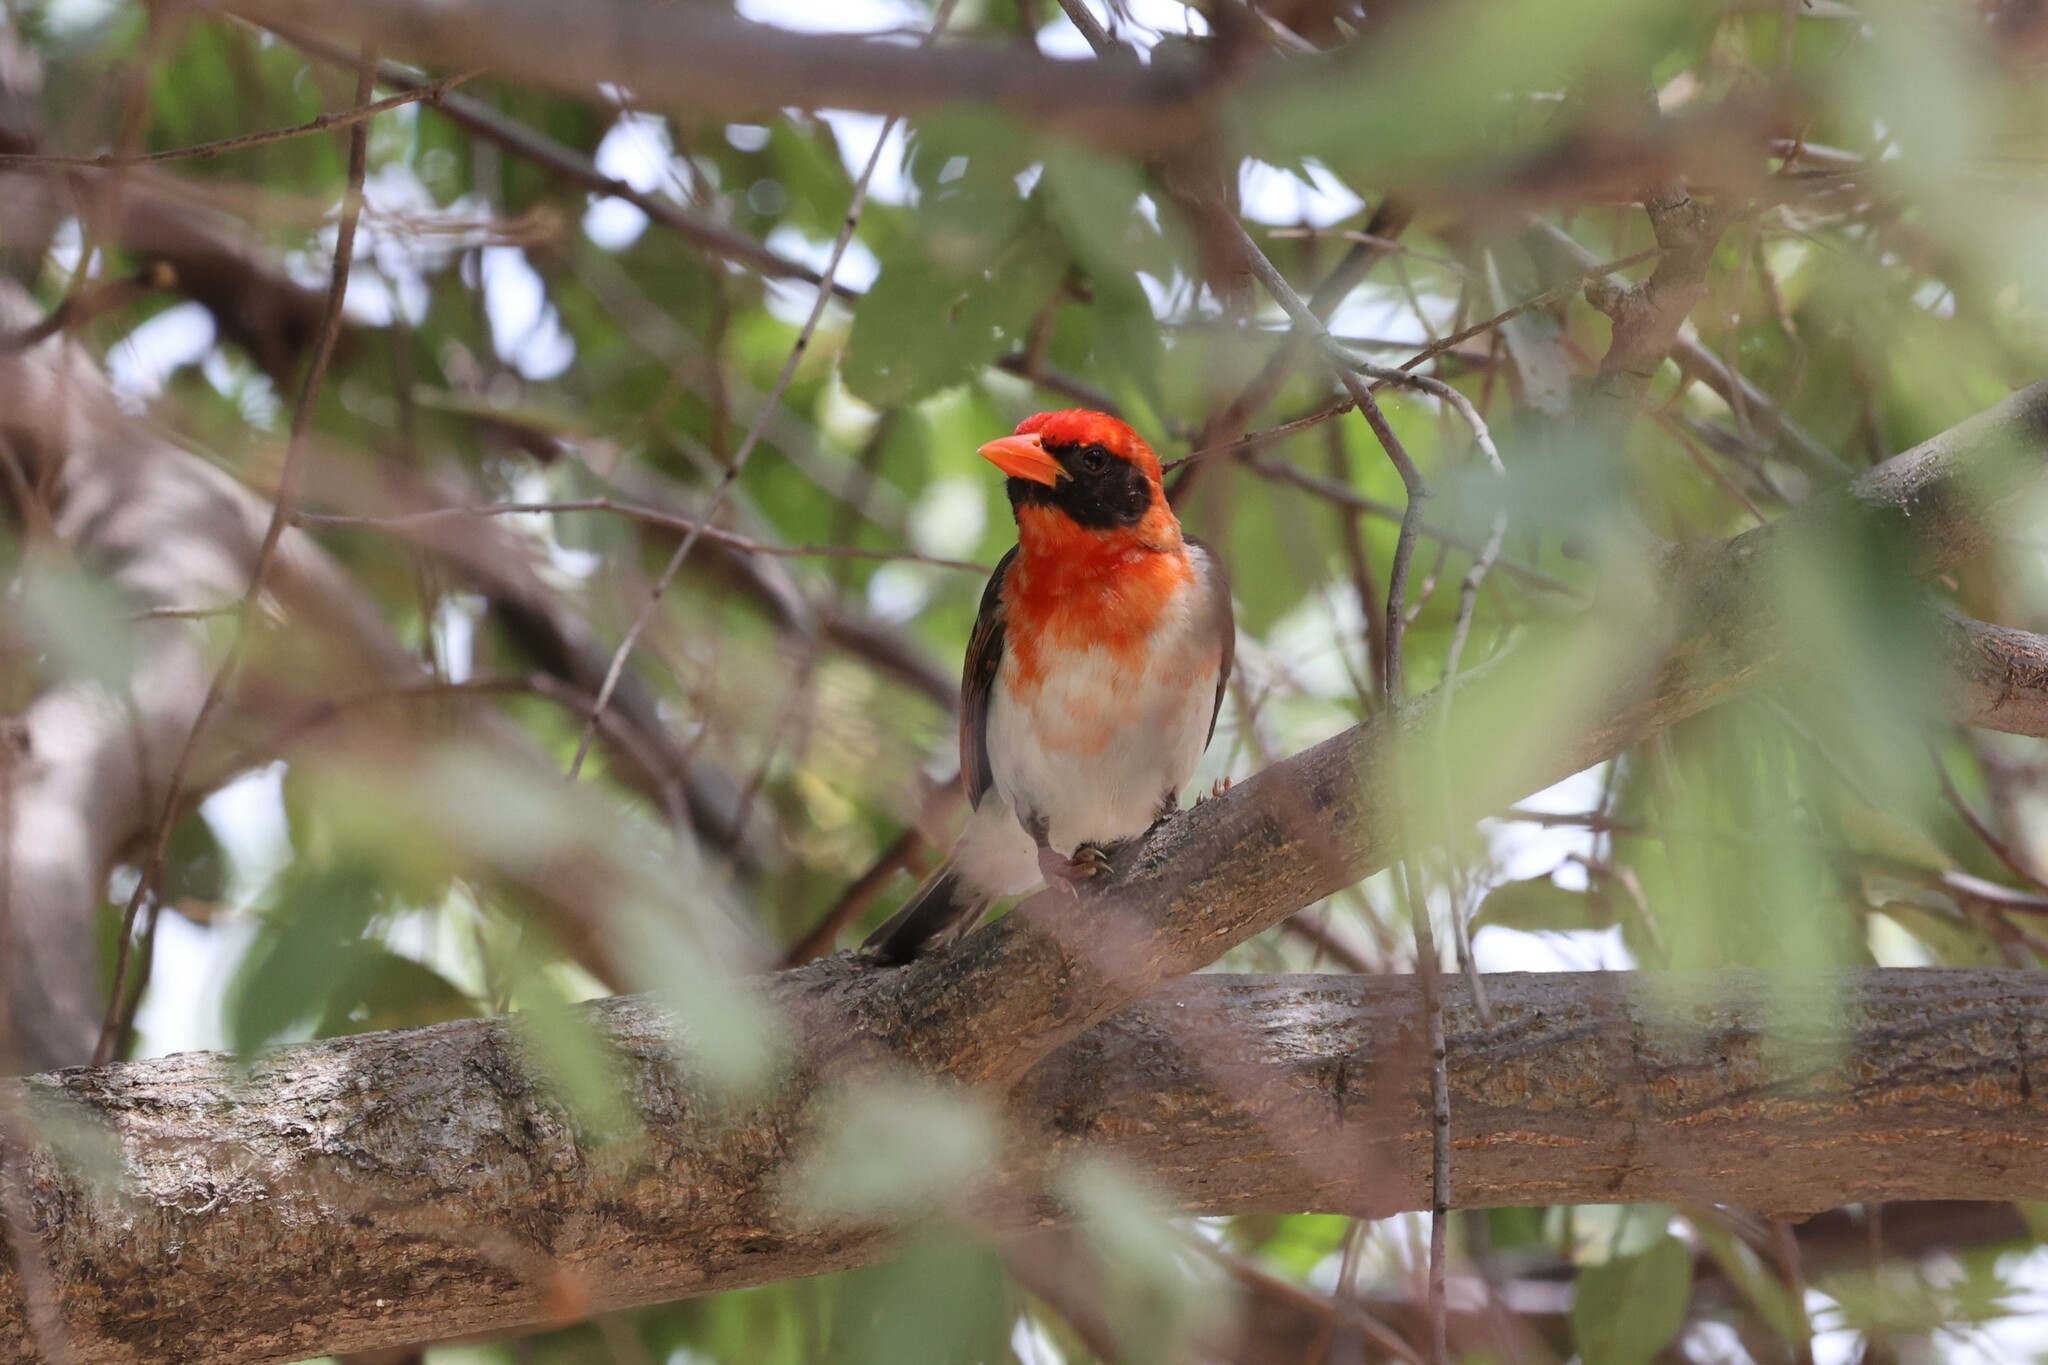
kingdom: Animalia
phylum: Chordata
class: Aves
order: Passeriformes
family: Ploceidae
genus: Anaplectes
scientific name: Anaplectes rubriceps
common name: Red-headed weaver
